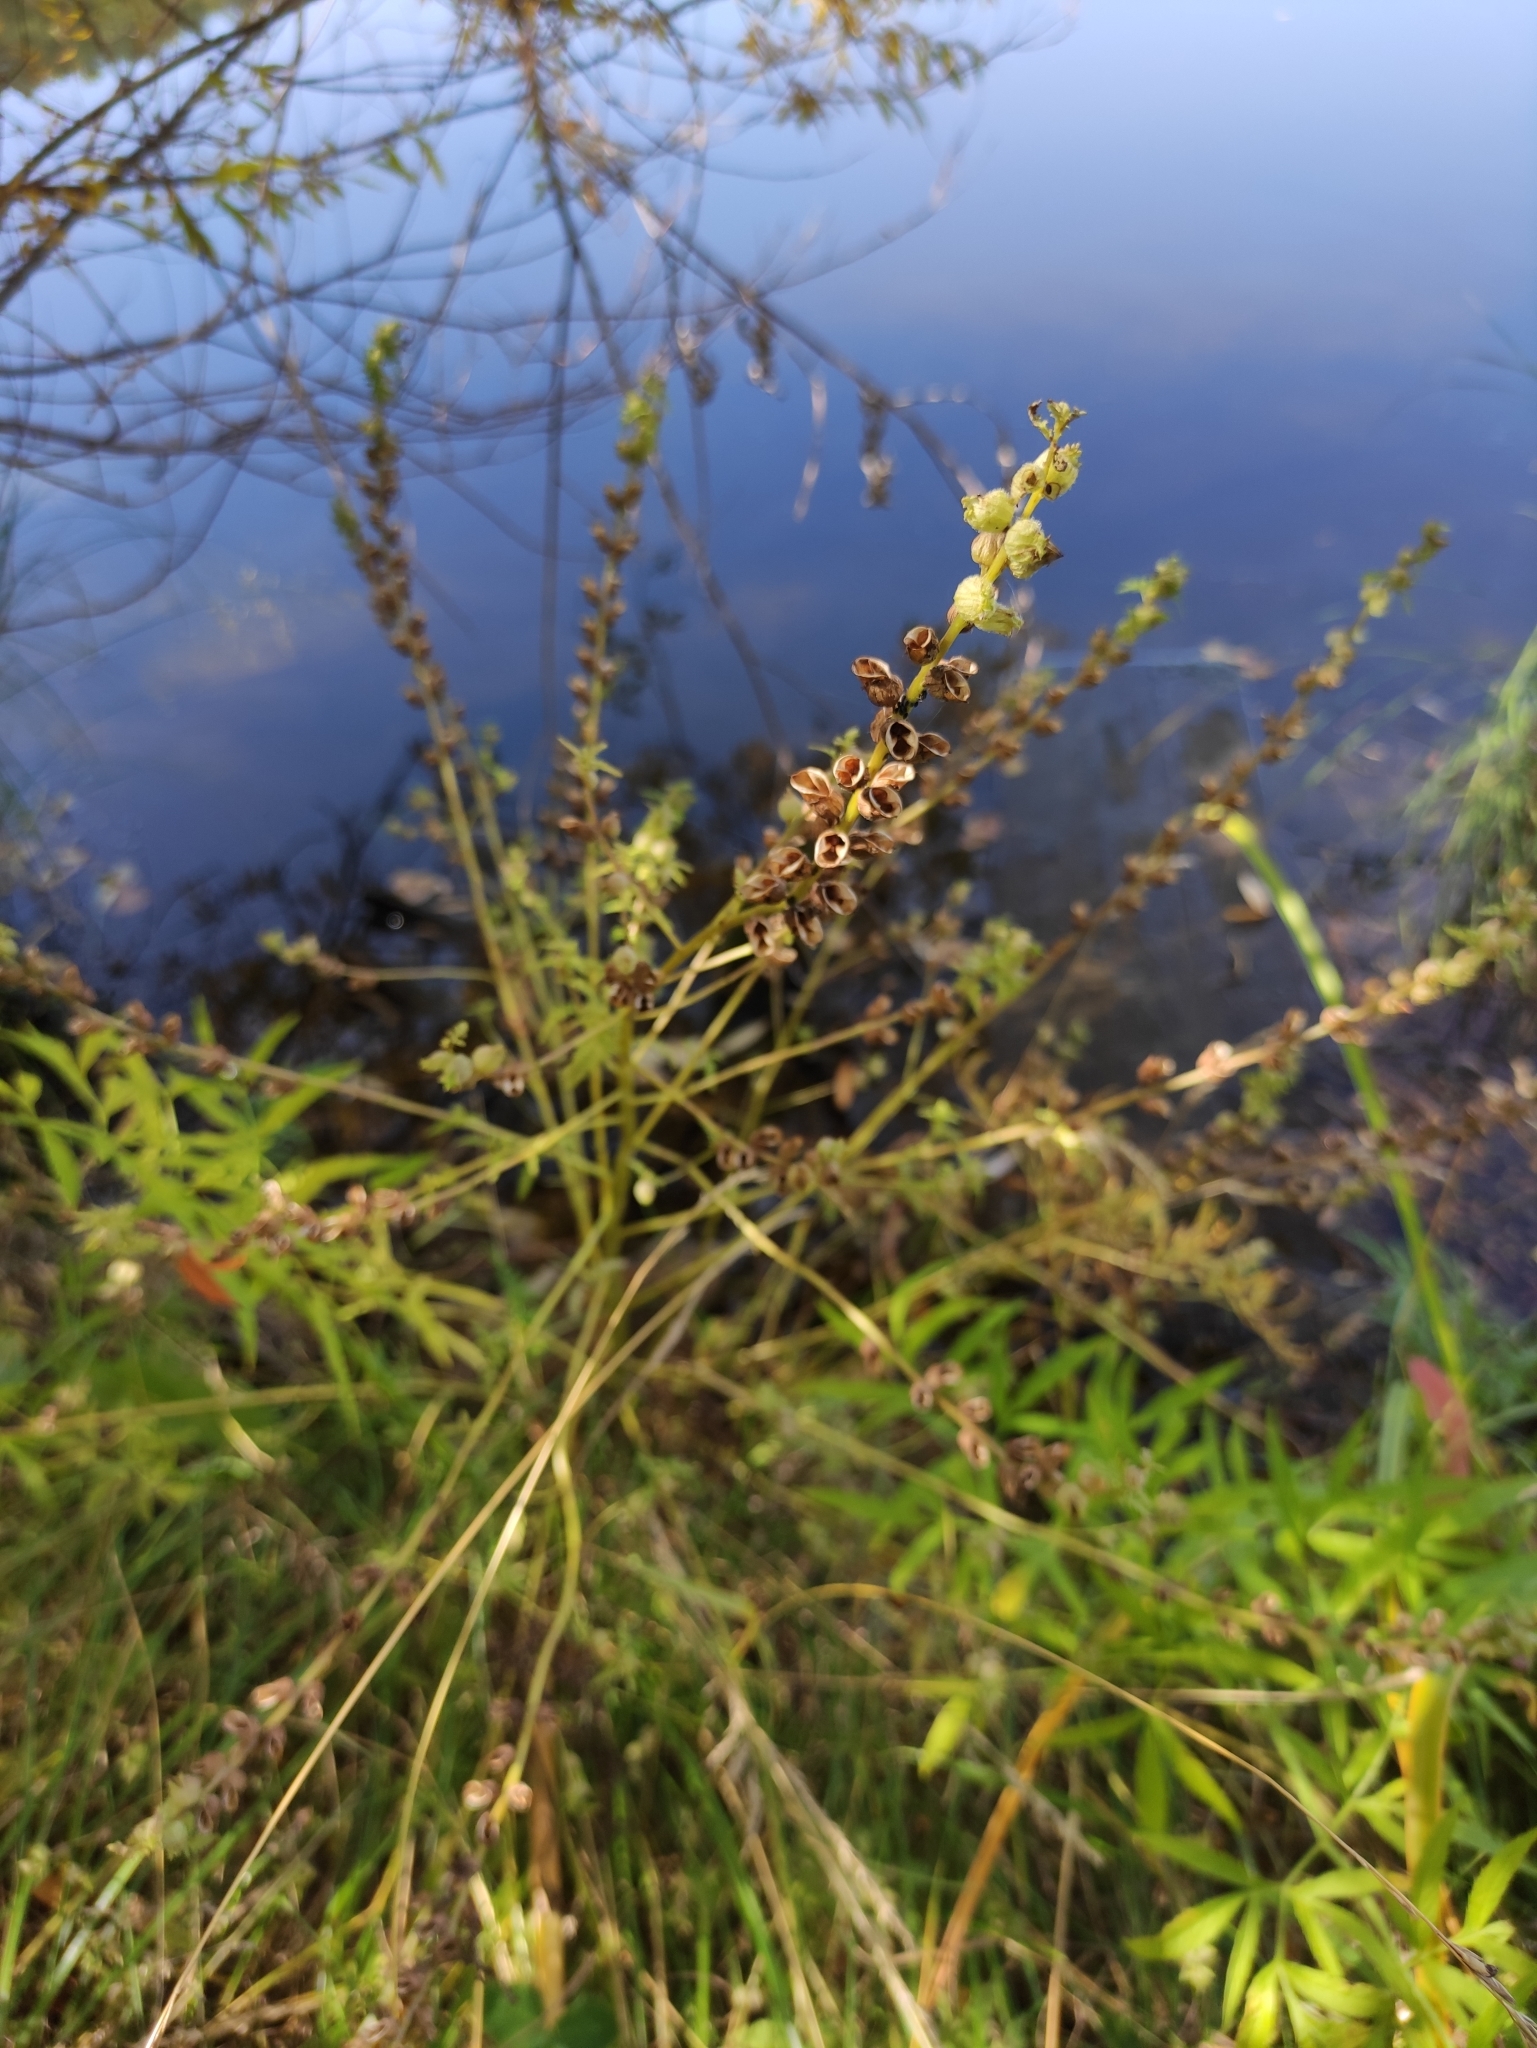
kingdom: Plantae
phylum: Tracheophyta
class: Magnoliopsida
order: Lamiales
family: Orobanchaceae
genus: Pedicularis
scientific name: Pedicularis karoi
